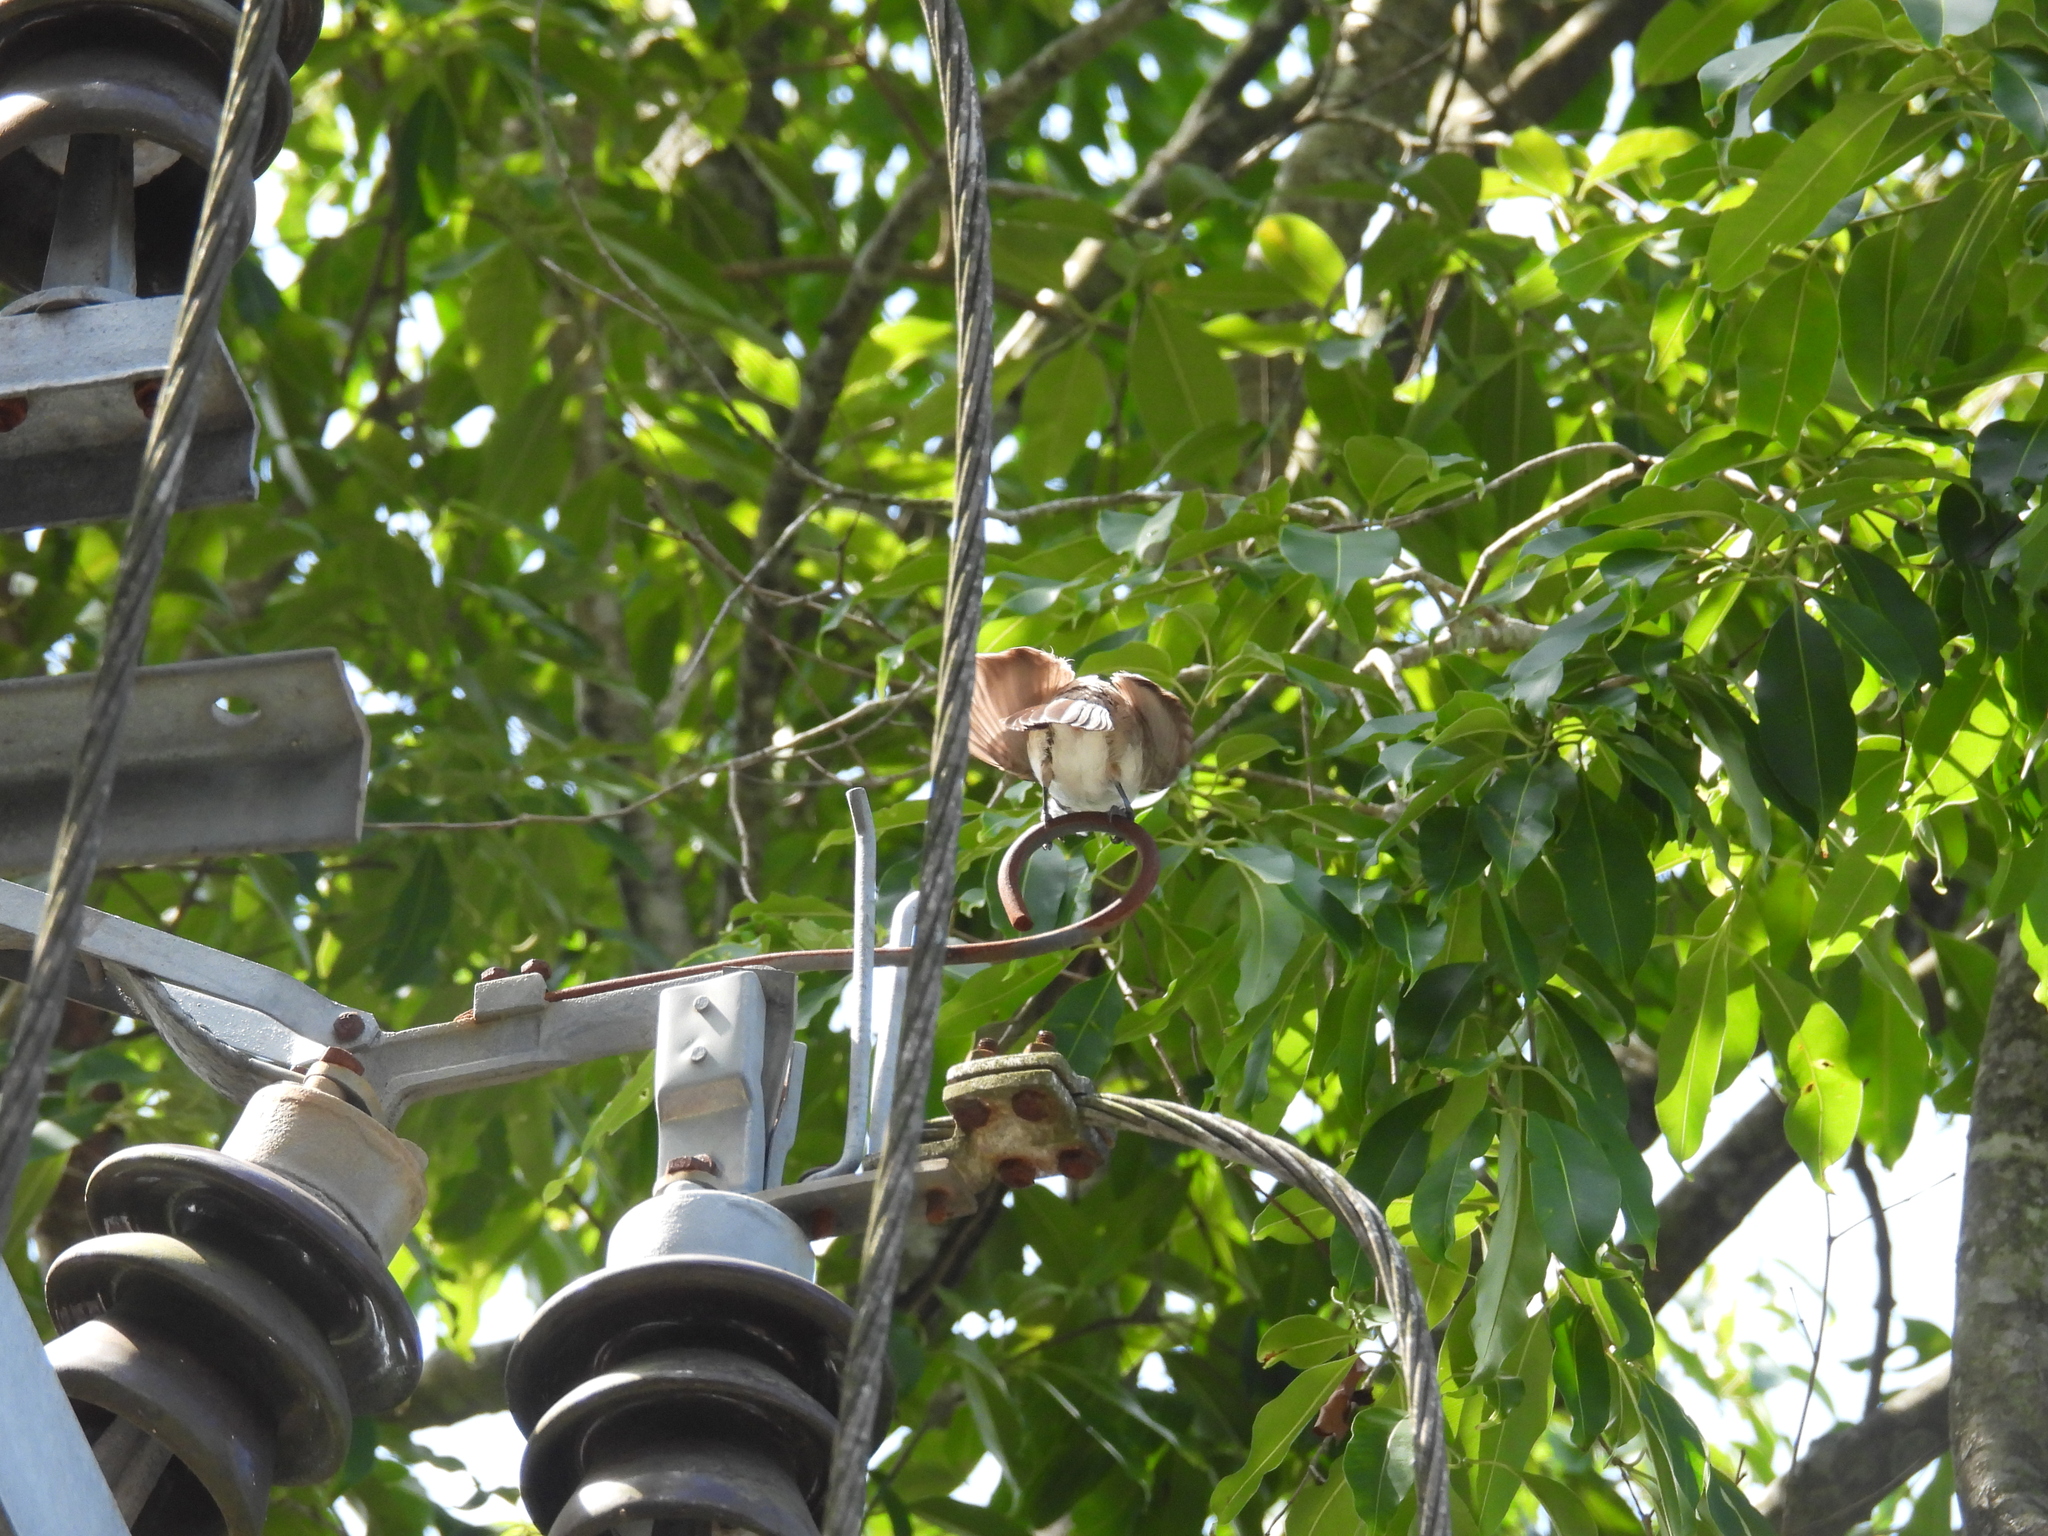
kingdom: Animalia
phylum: Chordata
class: Aves
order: Passeriformes
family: Pycnonotidae
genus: Pycnonotus
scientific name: Pycnonotus jocosus
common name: Red-whiskered bulbul
